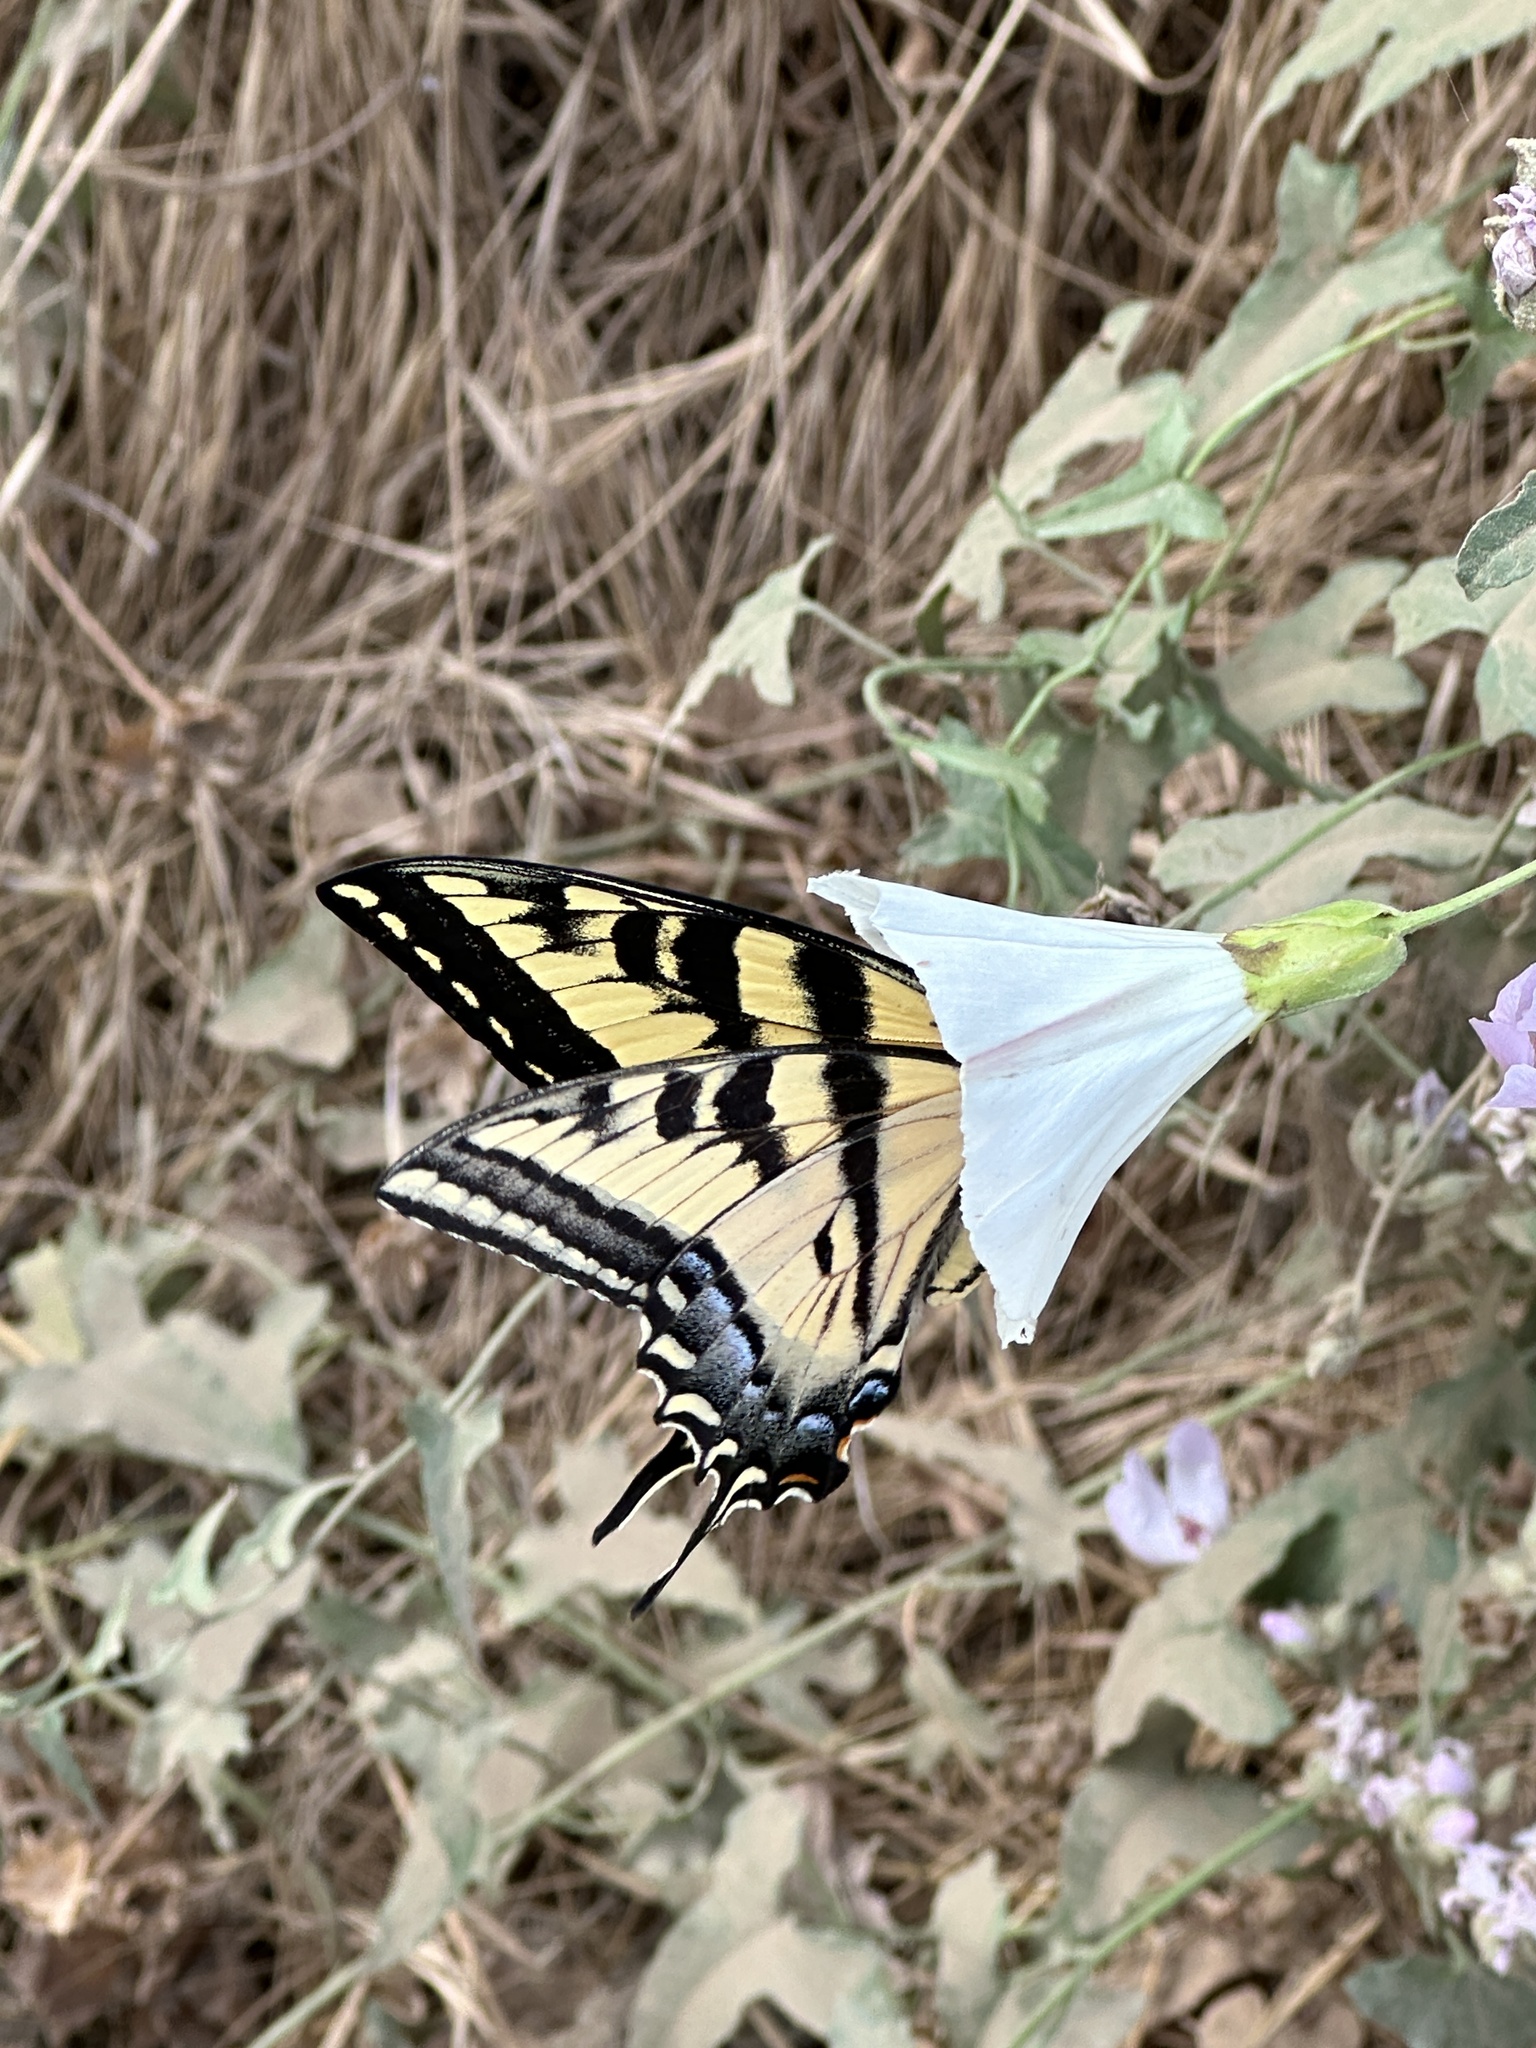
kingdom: Animalia
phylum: Arthropoda
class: Insecta
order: Lepidoptera
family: Papilionidae
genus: Papilio
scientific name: Papilio rutulus
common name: Western tiger swallowtail
